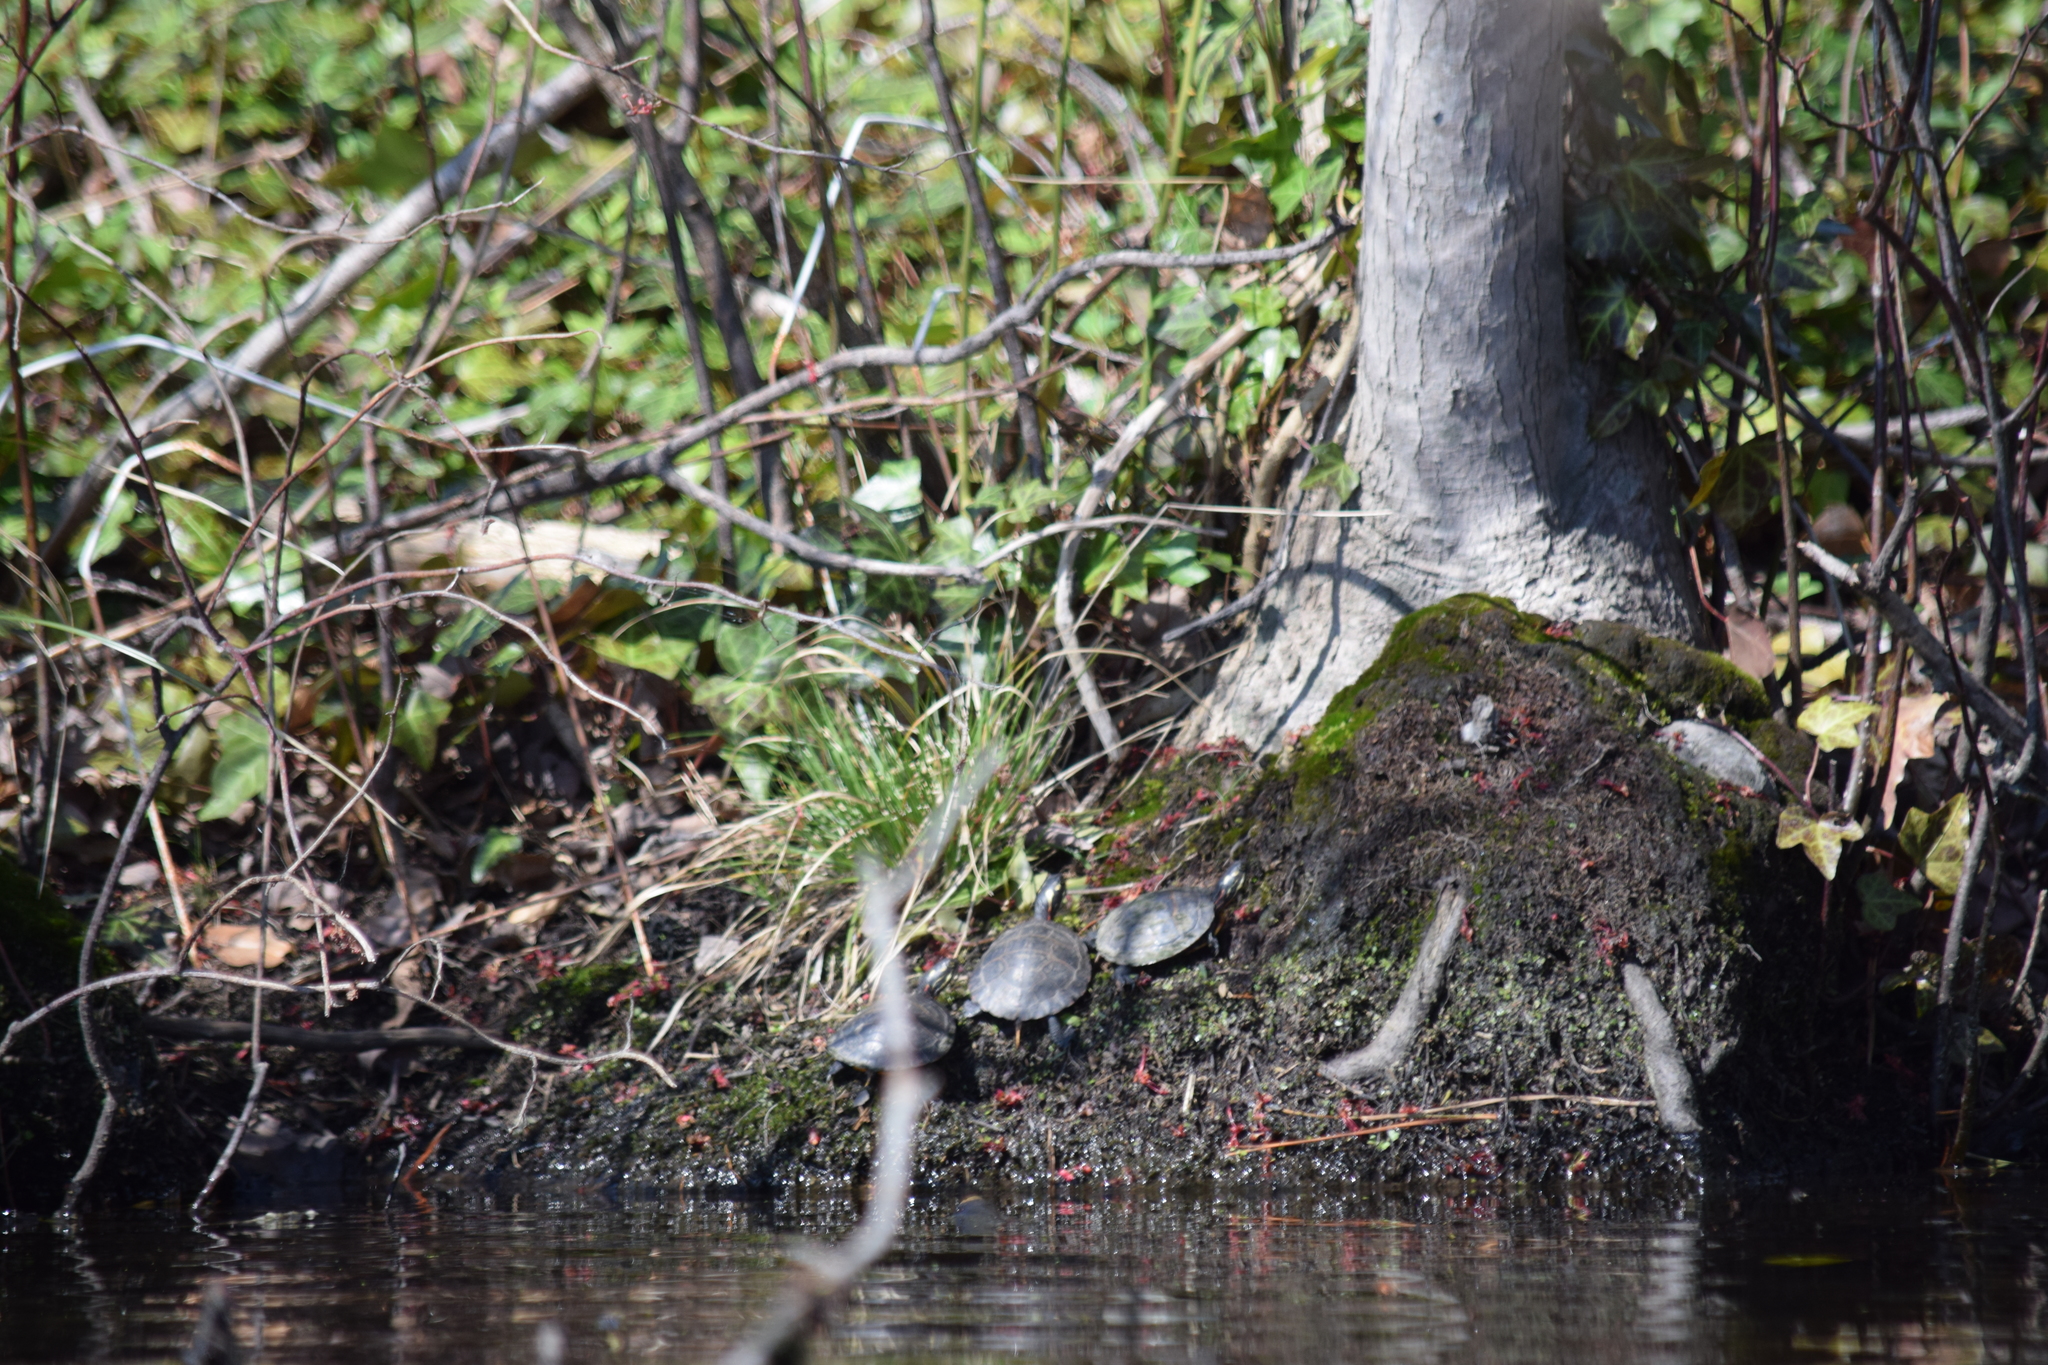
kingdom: Animalia
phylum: Chordata
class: Testudines
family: Emydidae
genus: Chrysemys
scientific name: Chrysemys picta
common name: Painted turtle
